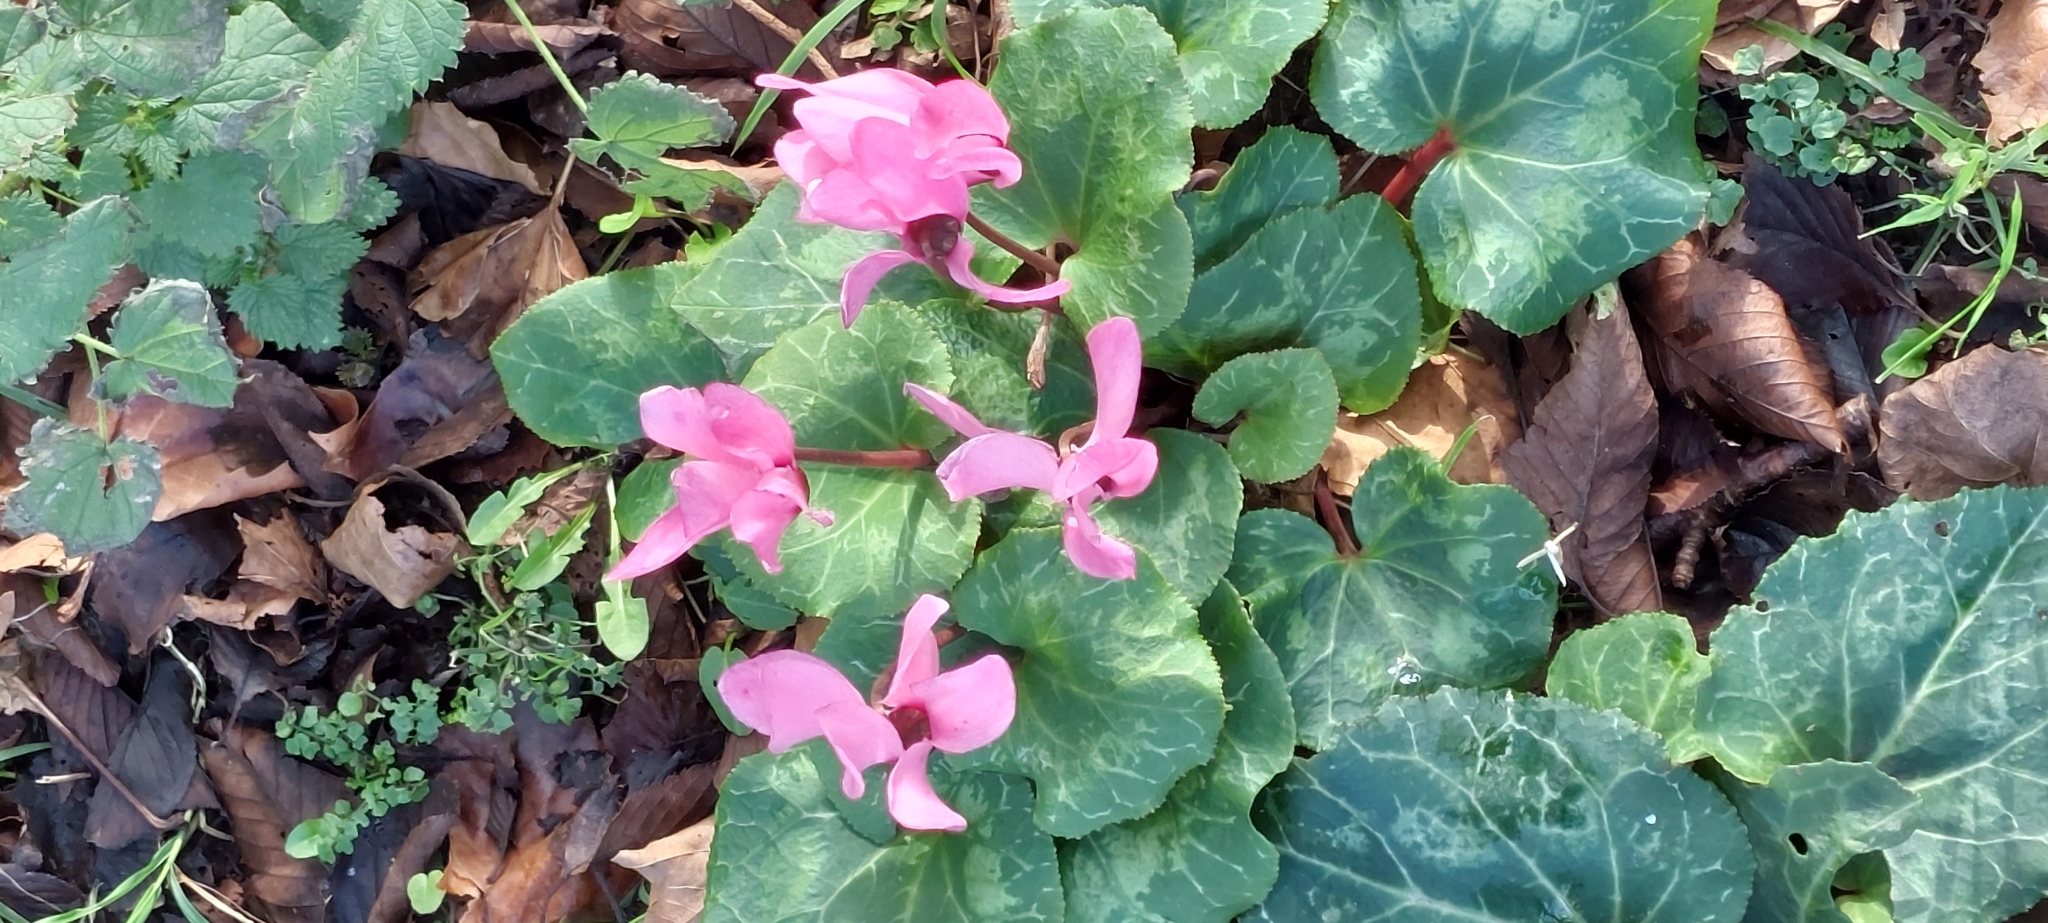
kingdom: Plantae
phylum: Tracheophyta
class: Magnoliopsida
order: Ericales
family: Primulaceae
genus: Cyclamen
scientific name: Cyclamen persicum
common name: Florist's cyclamen
